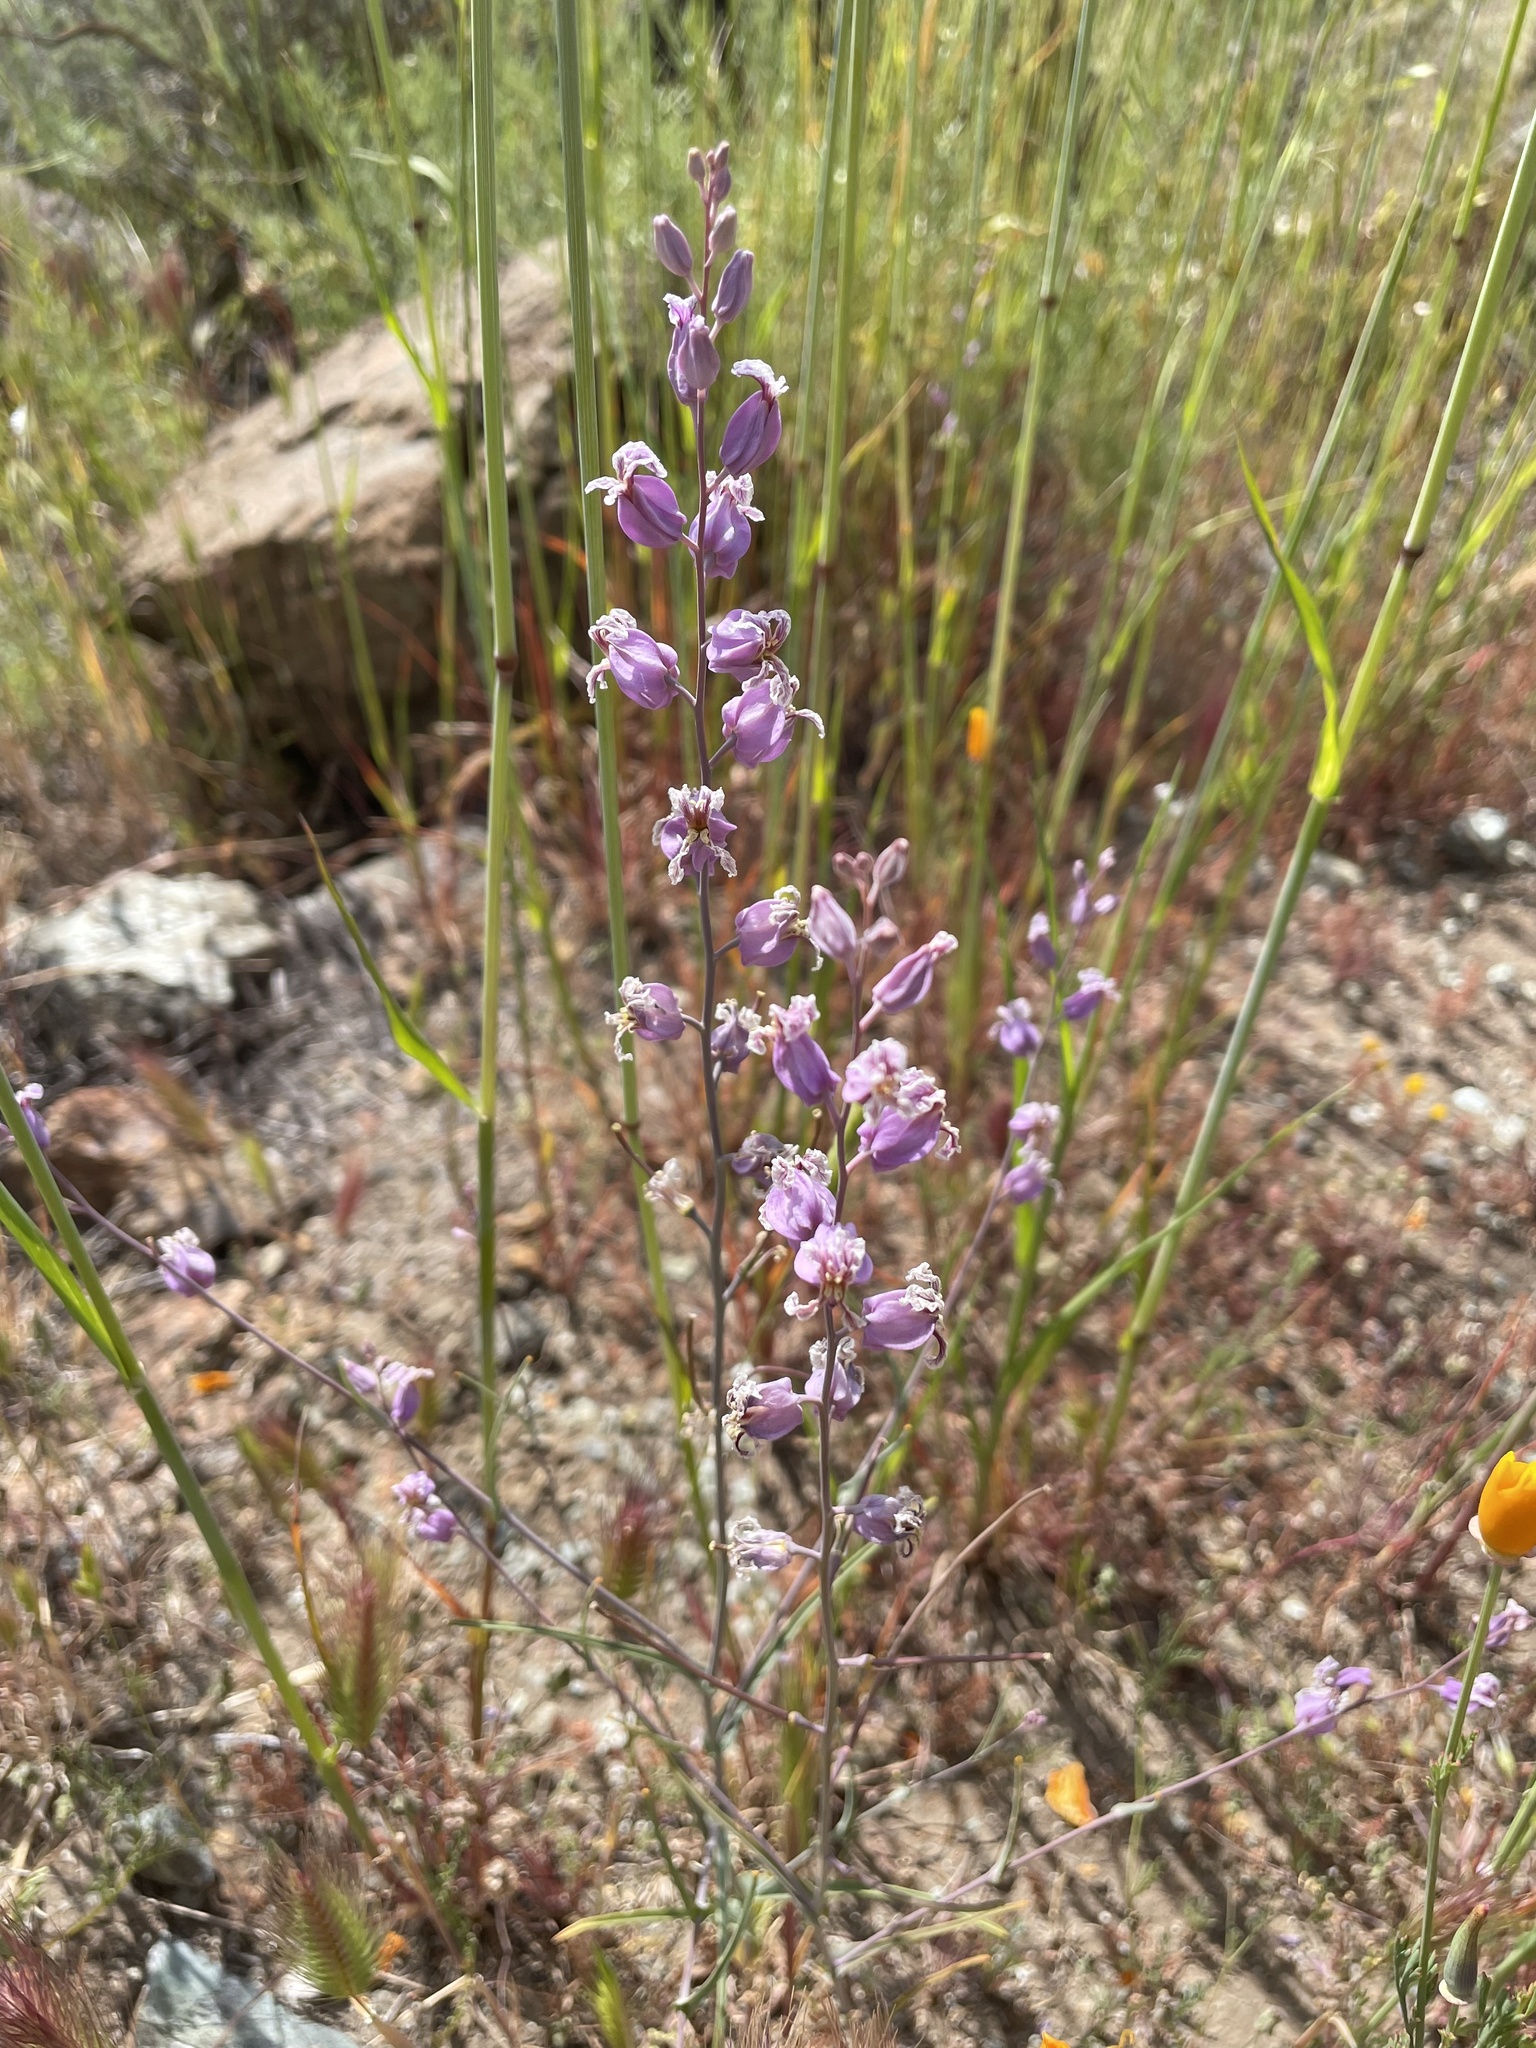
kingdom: Plantae
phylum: Tracheophyta
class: Magnoliopsida
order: Brassicales
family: Brassicaceae
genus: Streptanthus
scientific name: Streptanthus glandulosus
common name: Jewel-flower
